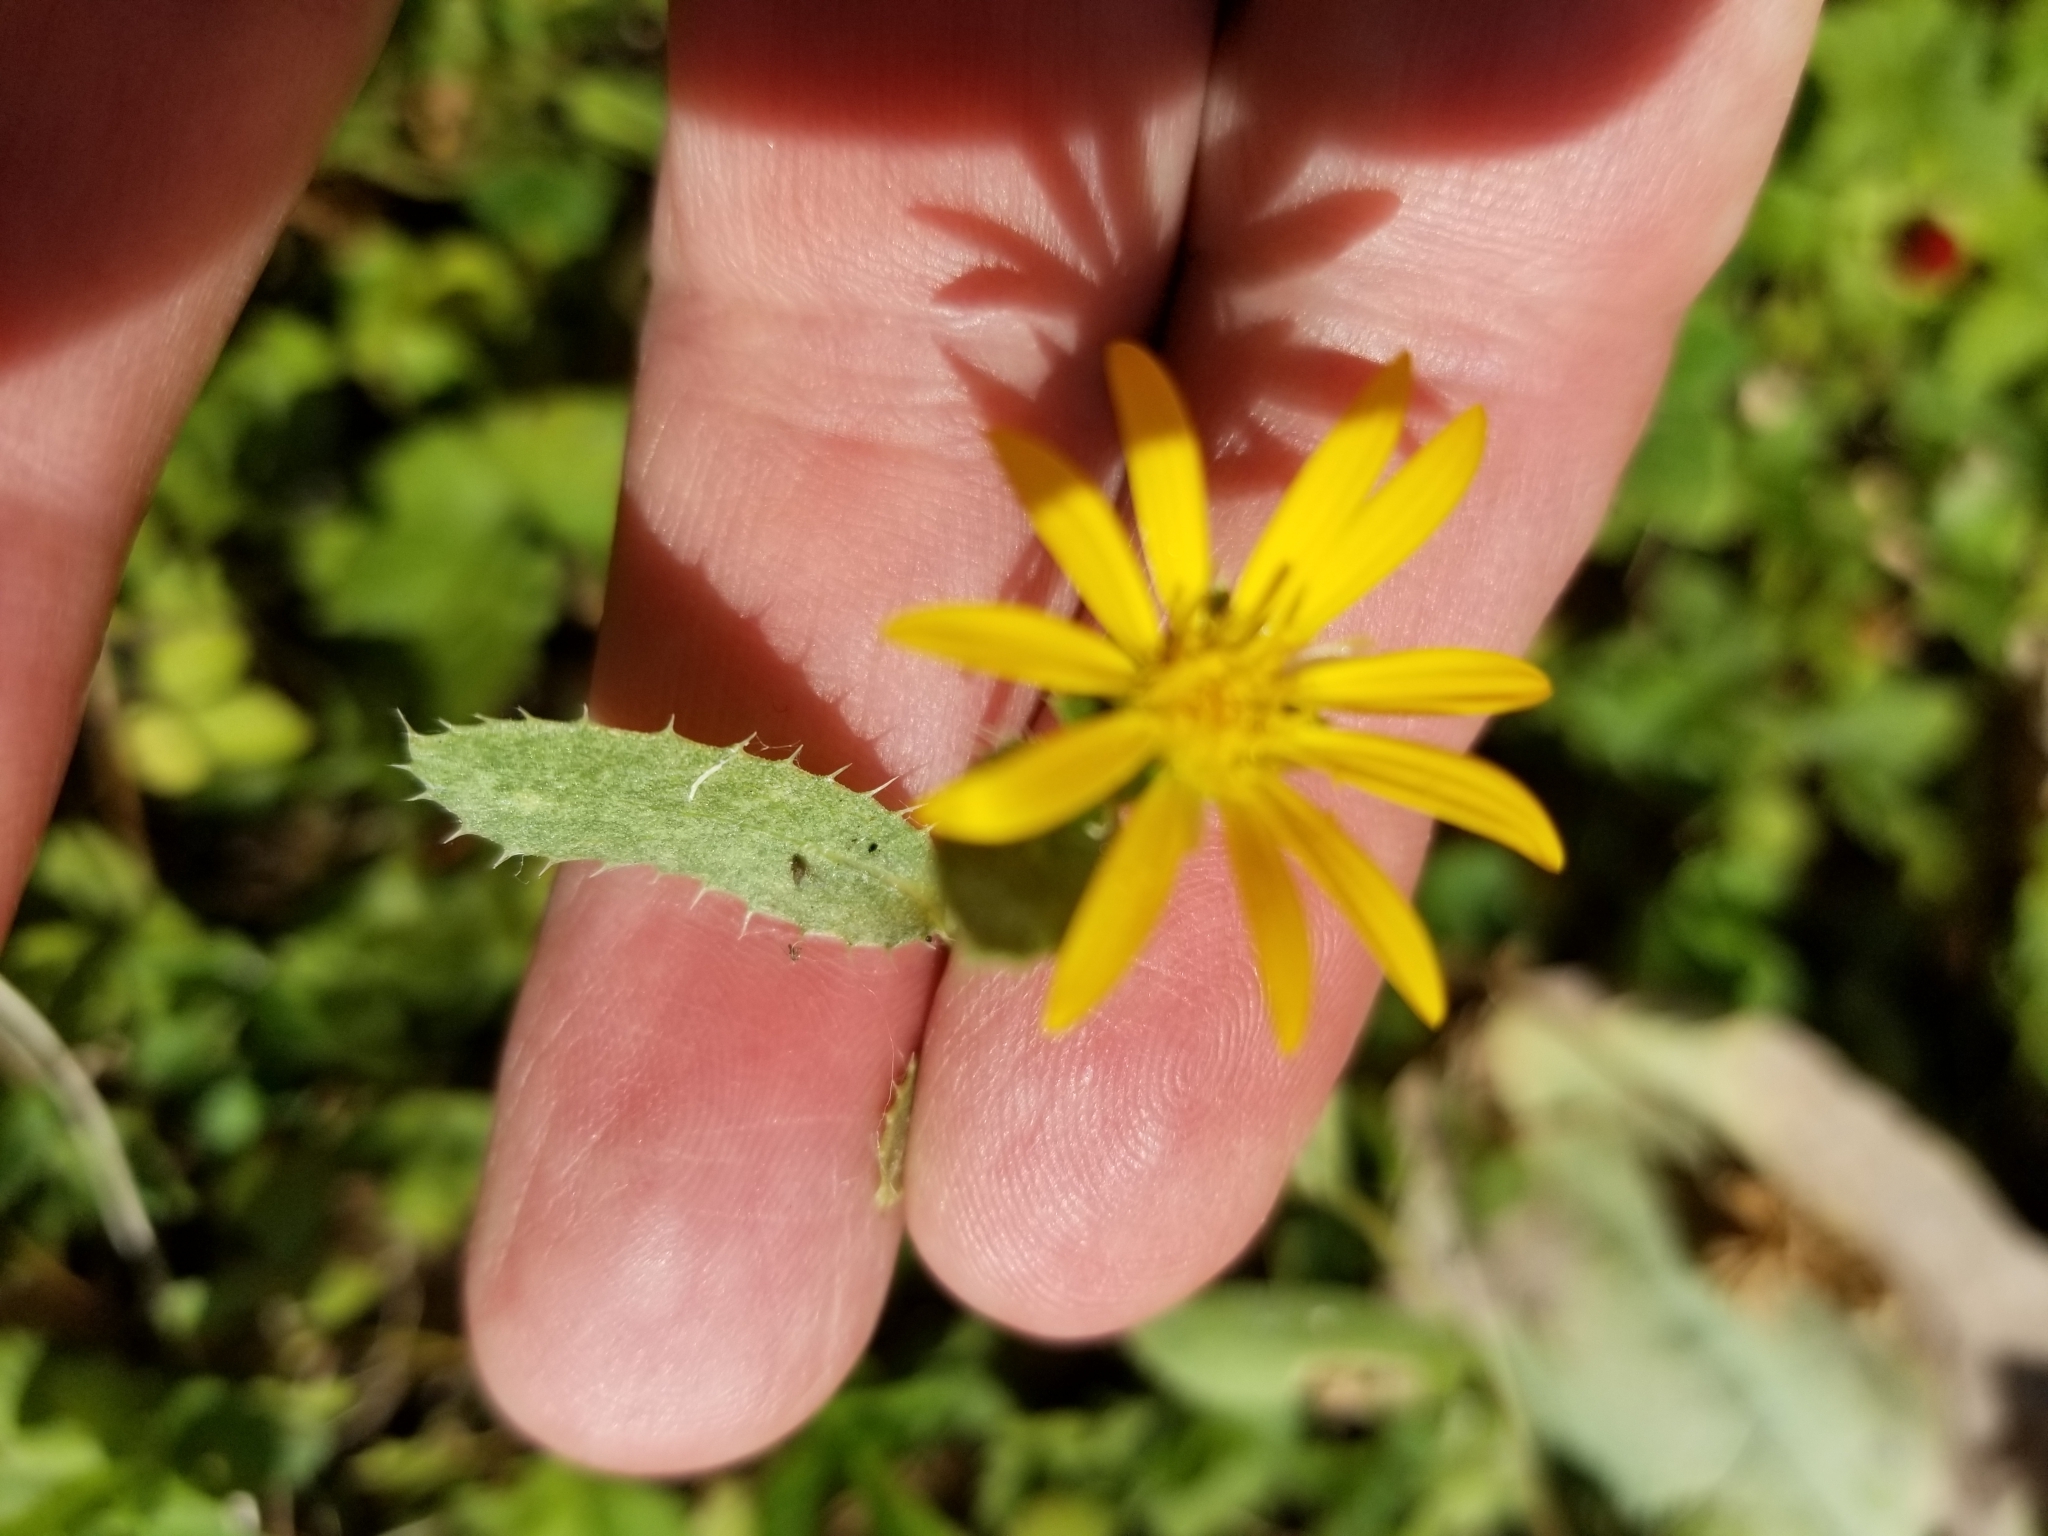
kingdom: Plantae
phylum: Tracheophyta
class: Magnoliopsida
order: Asterales
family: Asteraceae
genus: Grindelia
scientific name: Grindelia lanceolata
